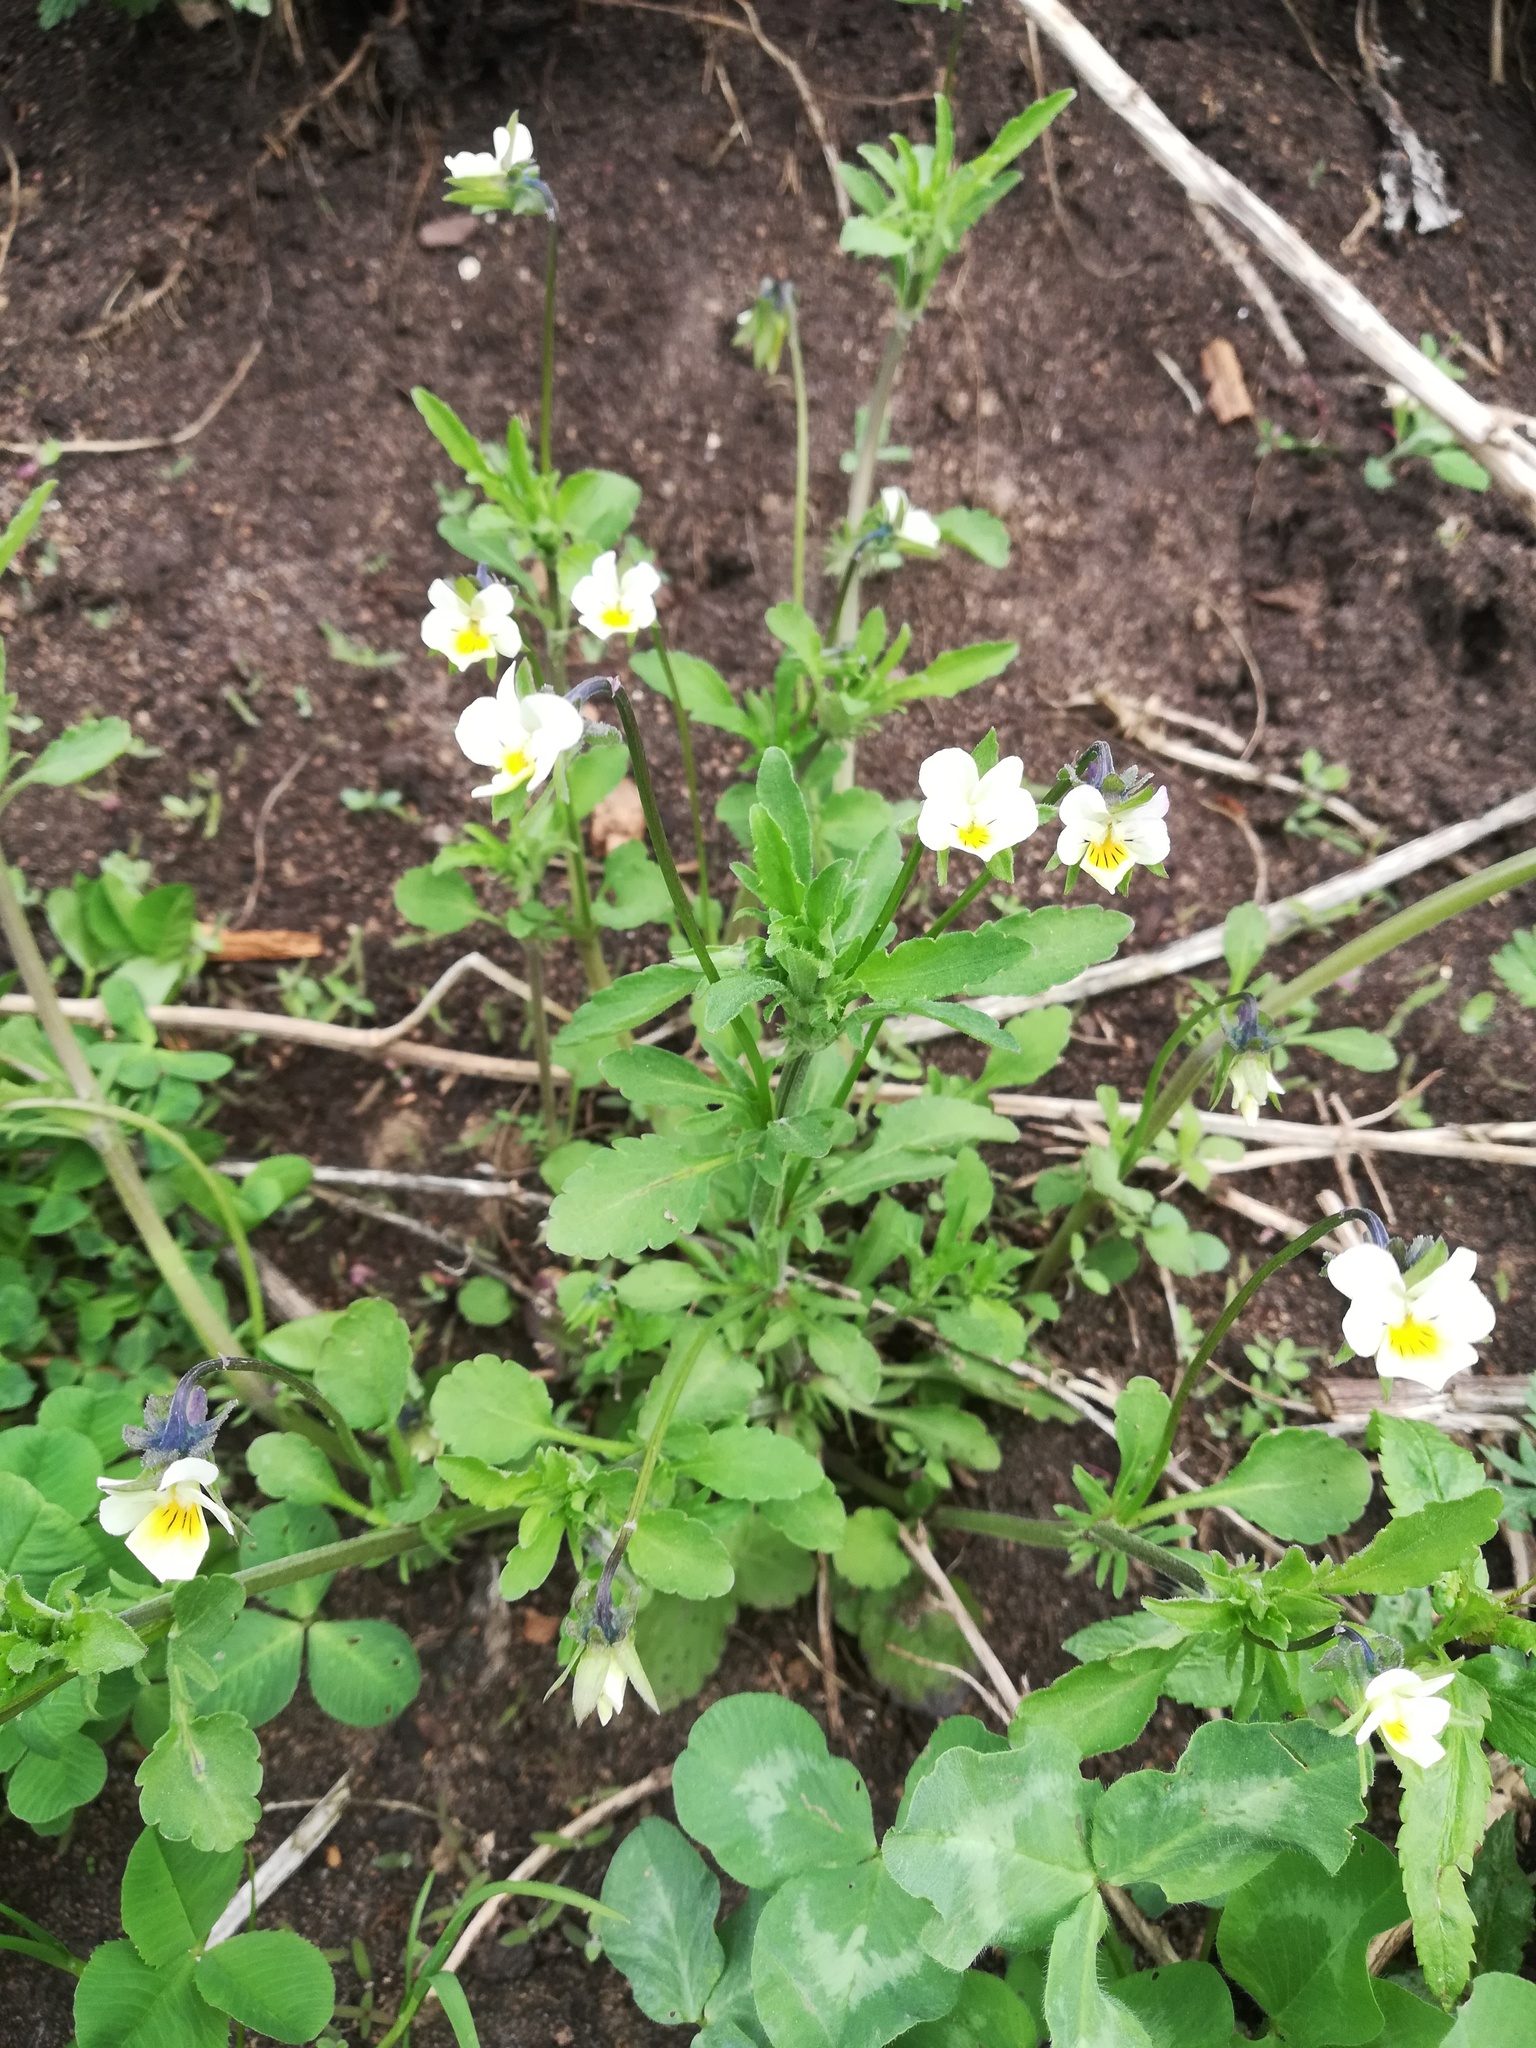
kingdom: Plantae
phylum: Tracheophyta
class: Magnoliopsida
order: Malpighiales
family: Violaceae
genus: Viola
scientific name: Viola arvensis
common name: Field pansy
